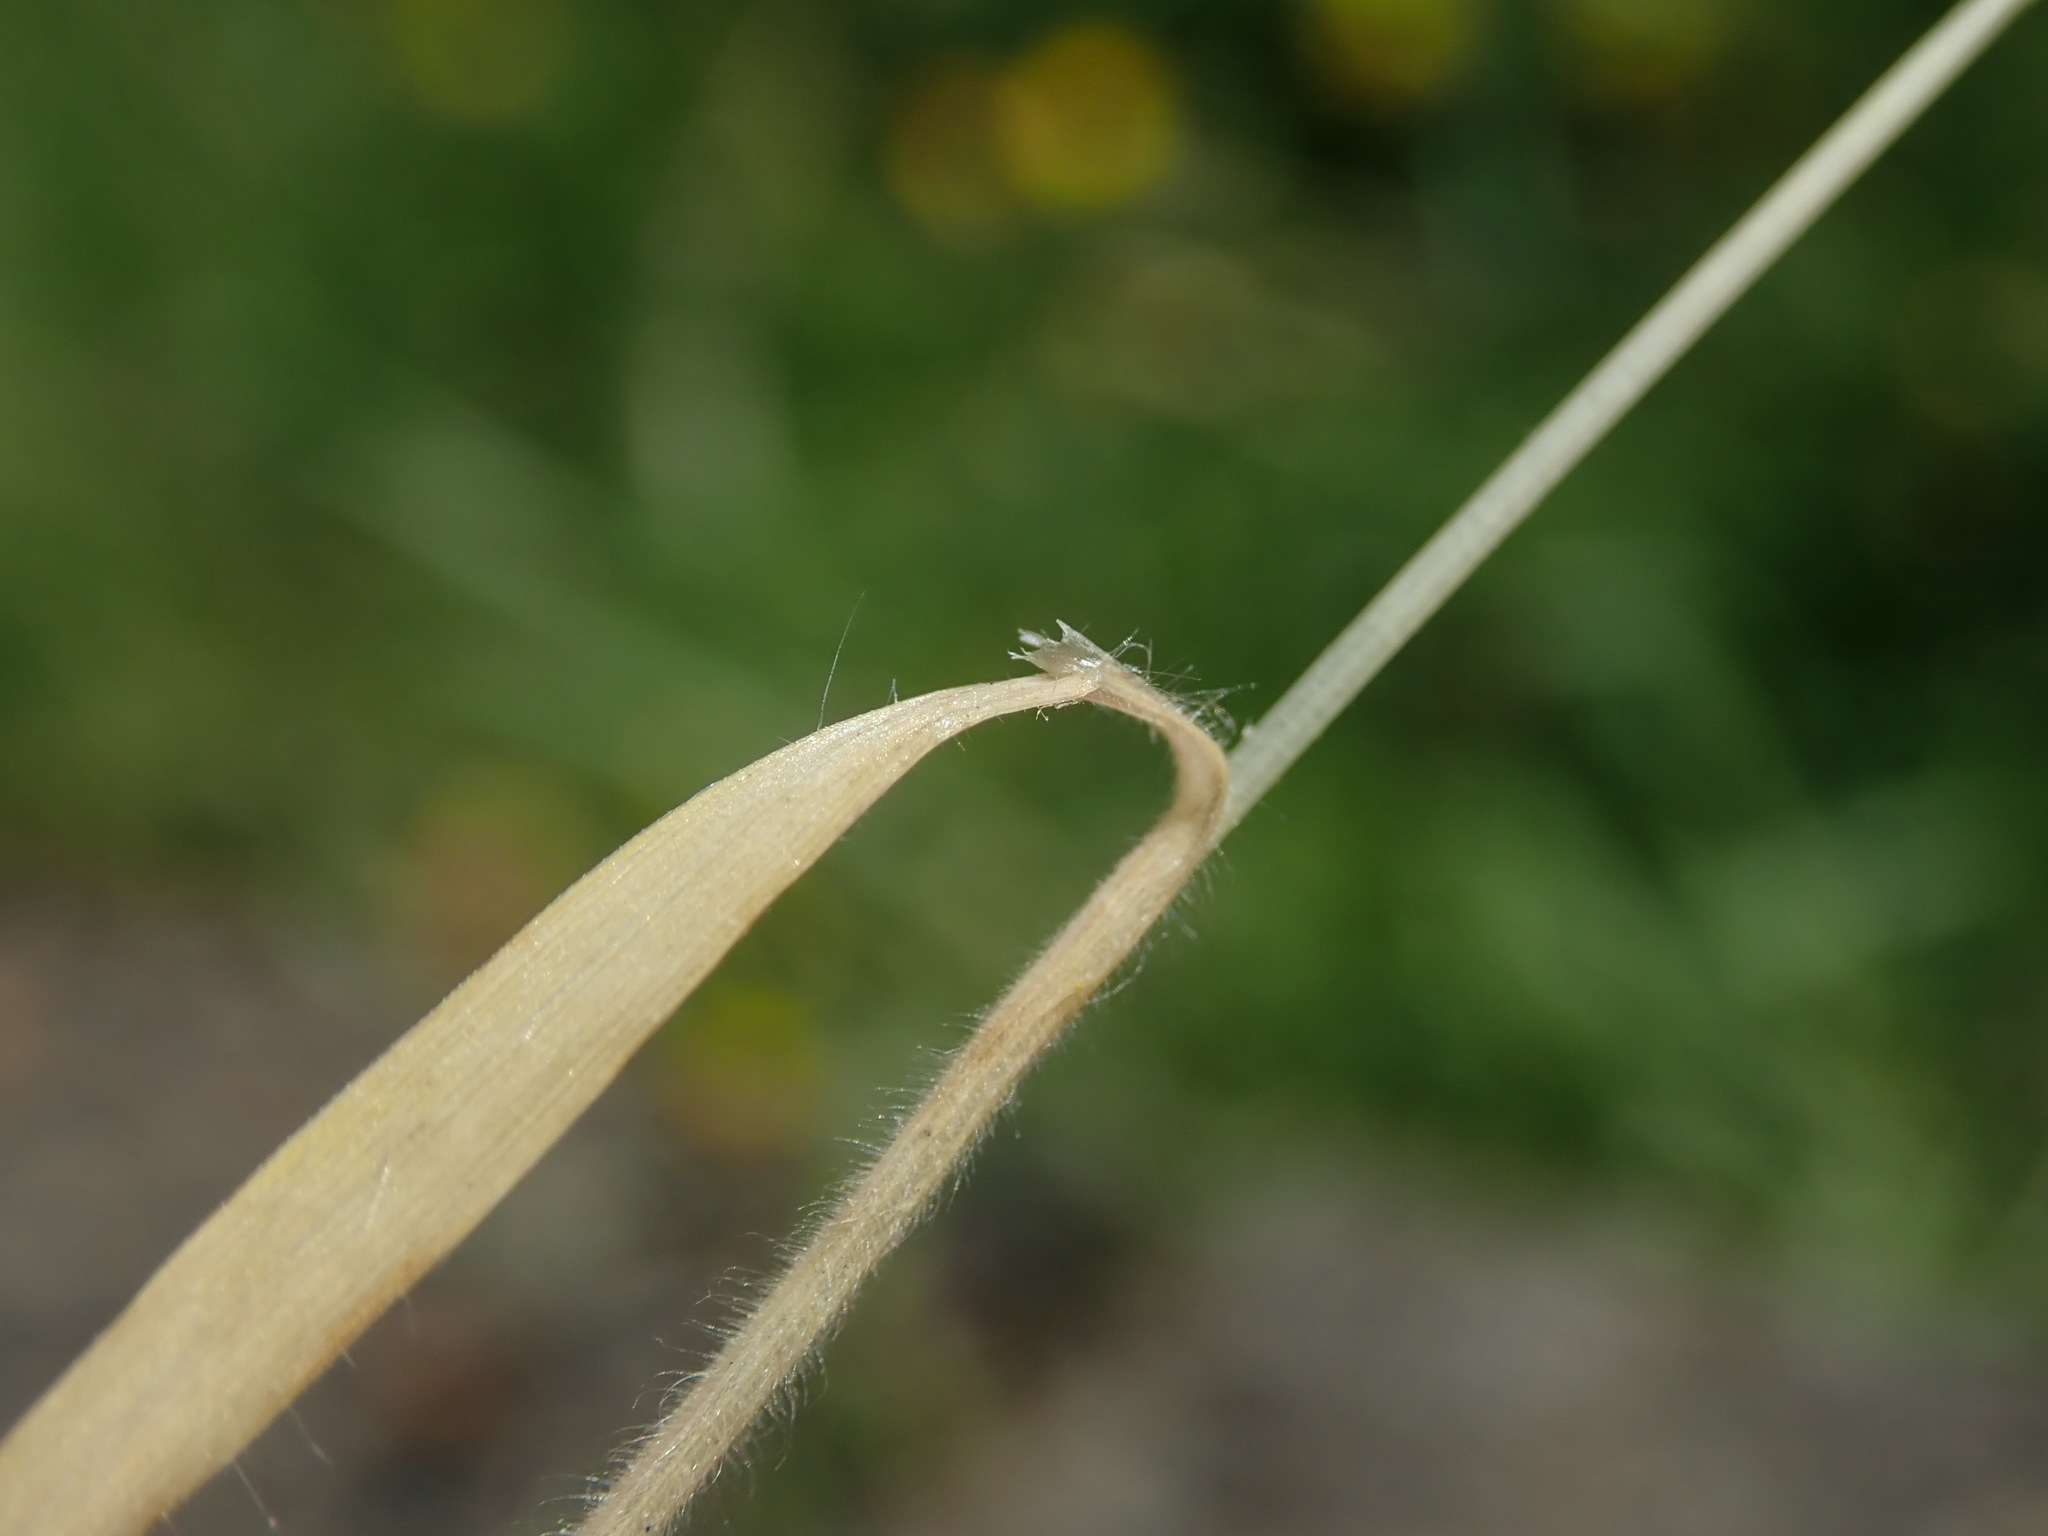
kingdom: Plantae
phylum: Tracheophyta
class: Liliopsida
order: Poales
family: Poaceae
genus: Bromus
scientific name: Bromus hordeaceus
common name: Soft brome
